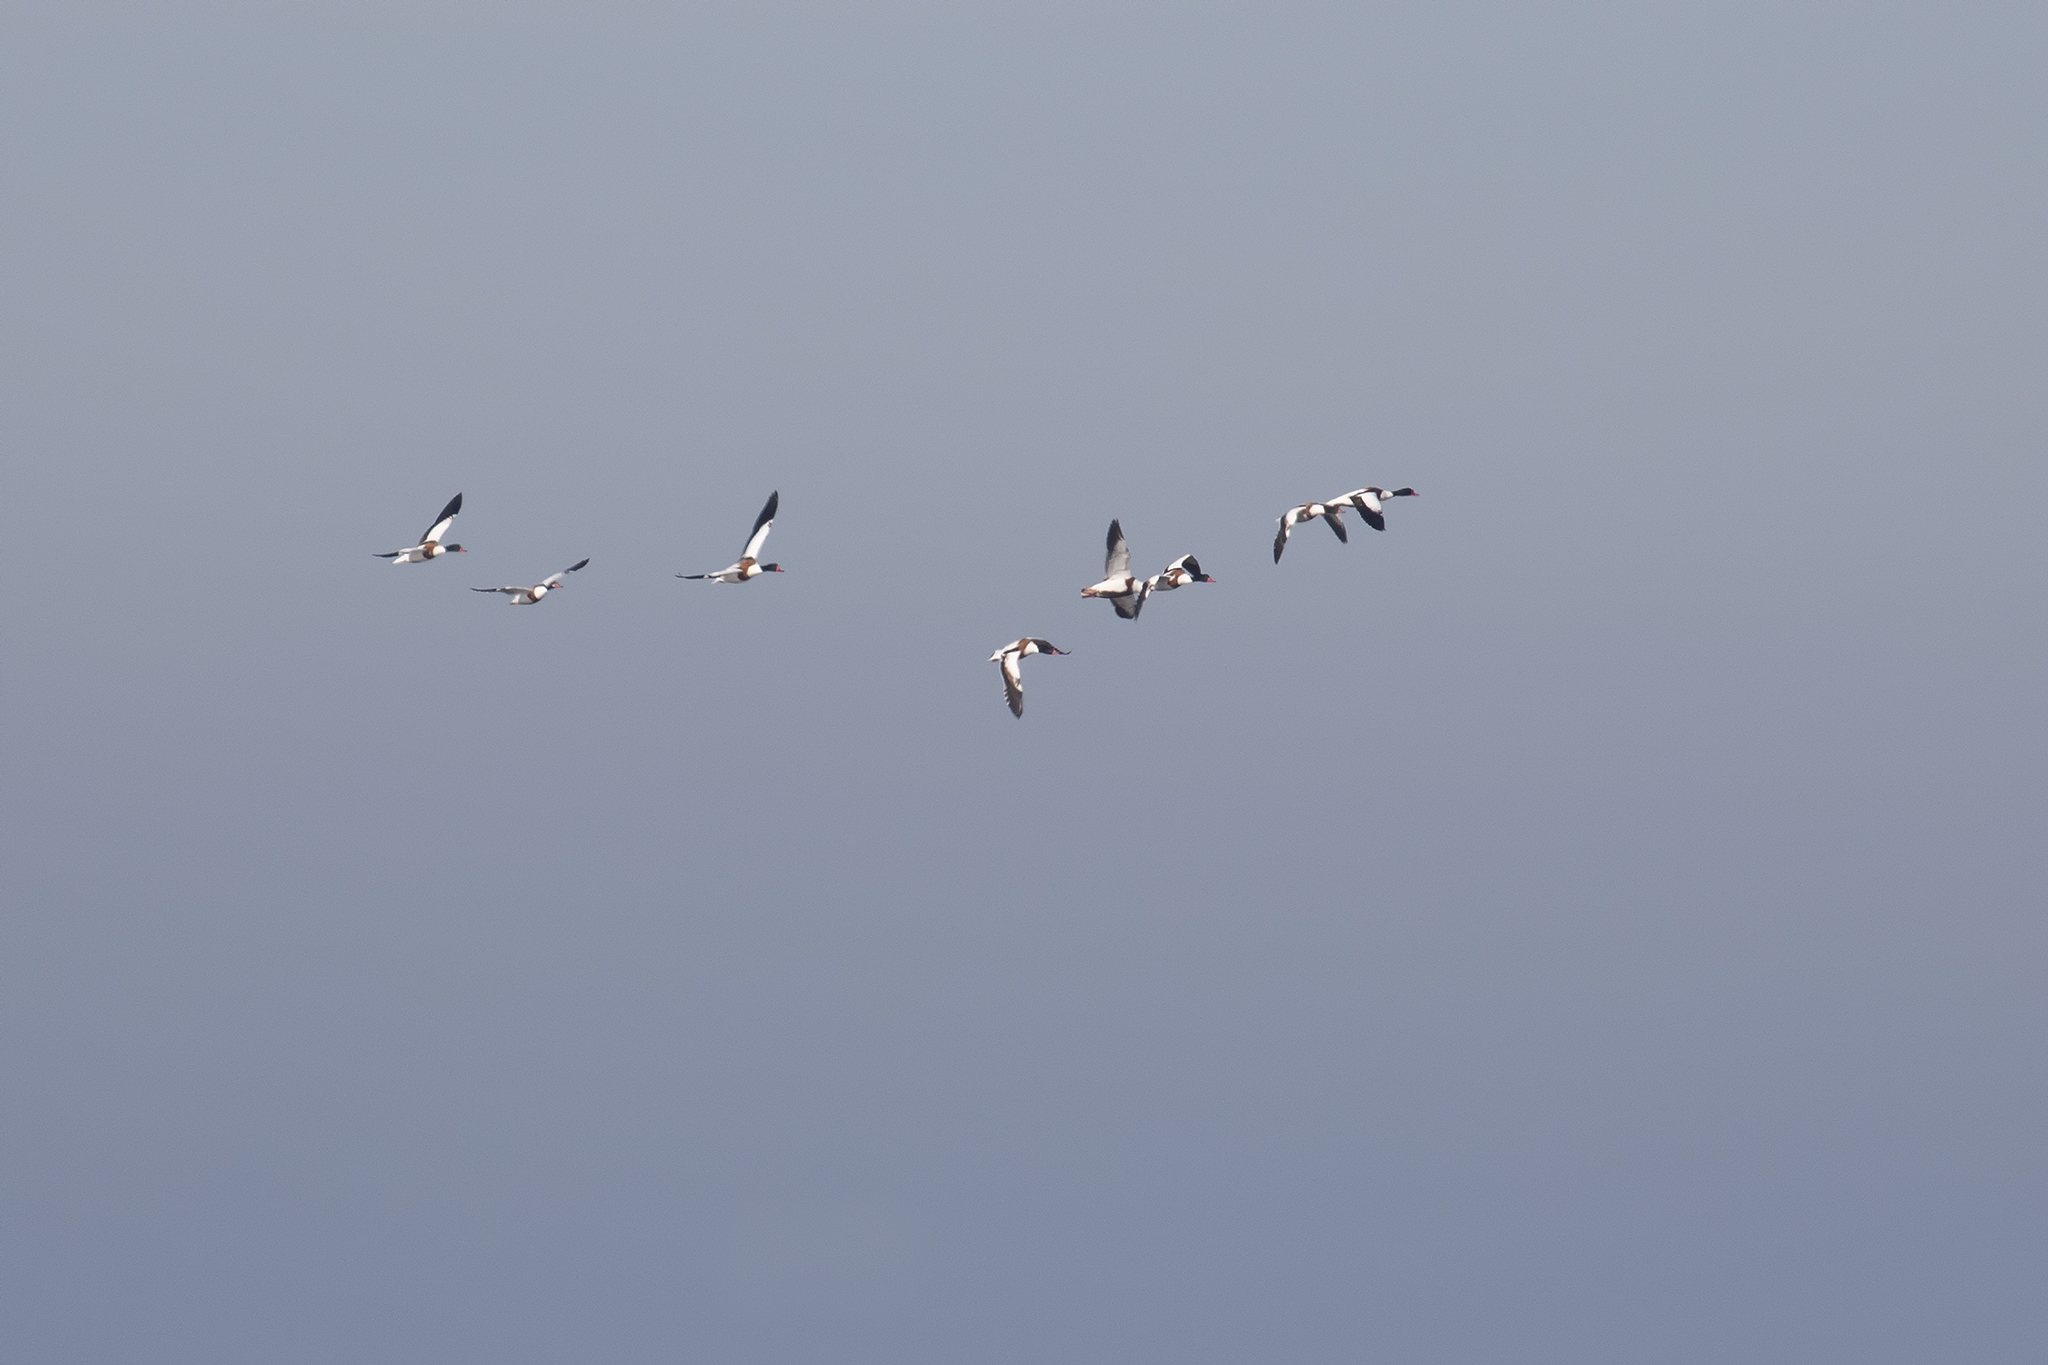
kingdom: Animalia
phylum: Chordata
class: Aves
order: Anseriformes
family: Anatidae
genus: Tadorna
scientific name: Tadorna tadorna
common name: Common shelduck
